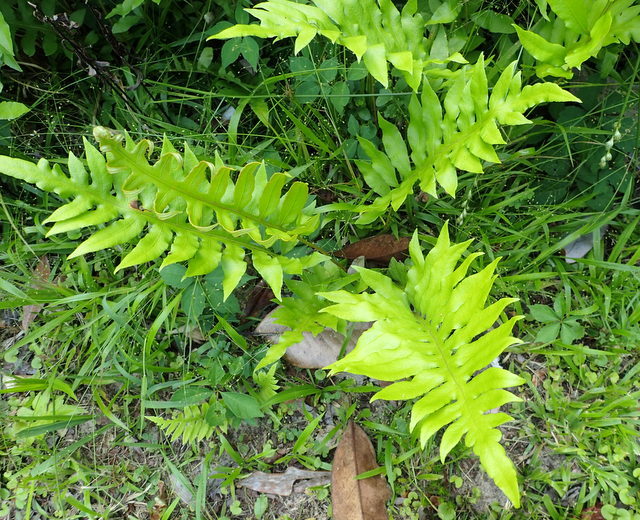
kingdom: Plantae
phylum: Tracheophyta
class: Polypodiopsida
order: Polypodiales
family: Blechnaceae
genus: Lorinseria
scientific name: Lorinseria areolata
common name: Dwarf chain fern
